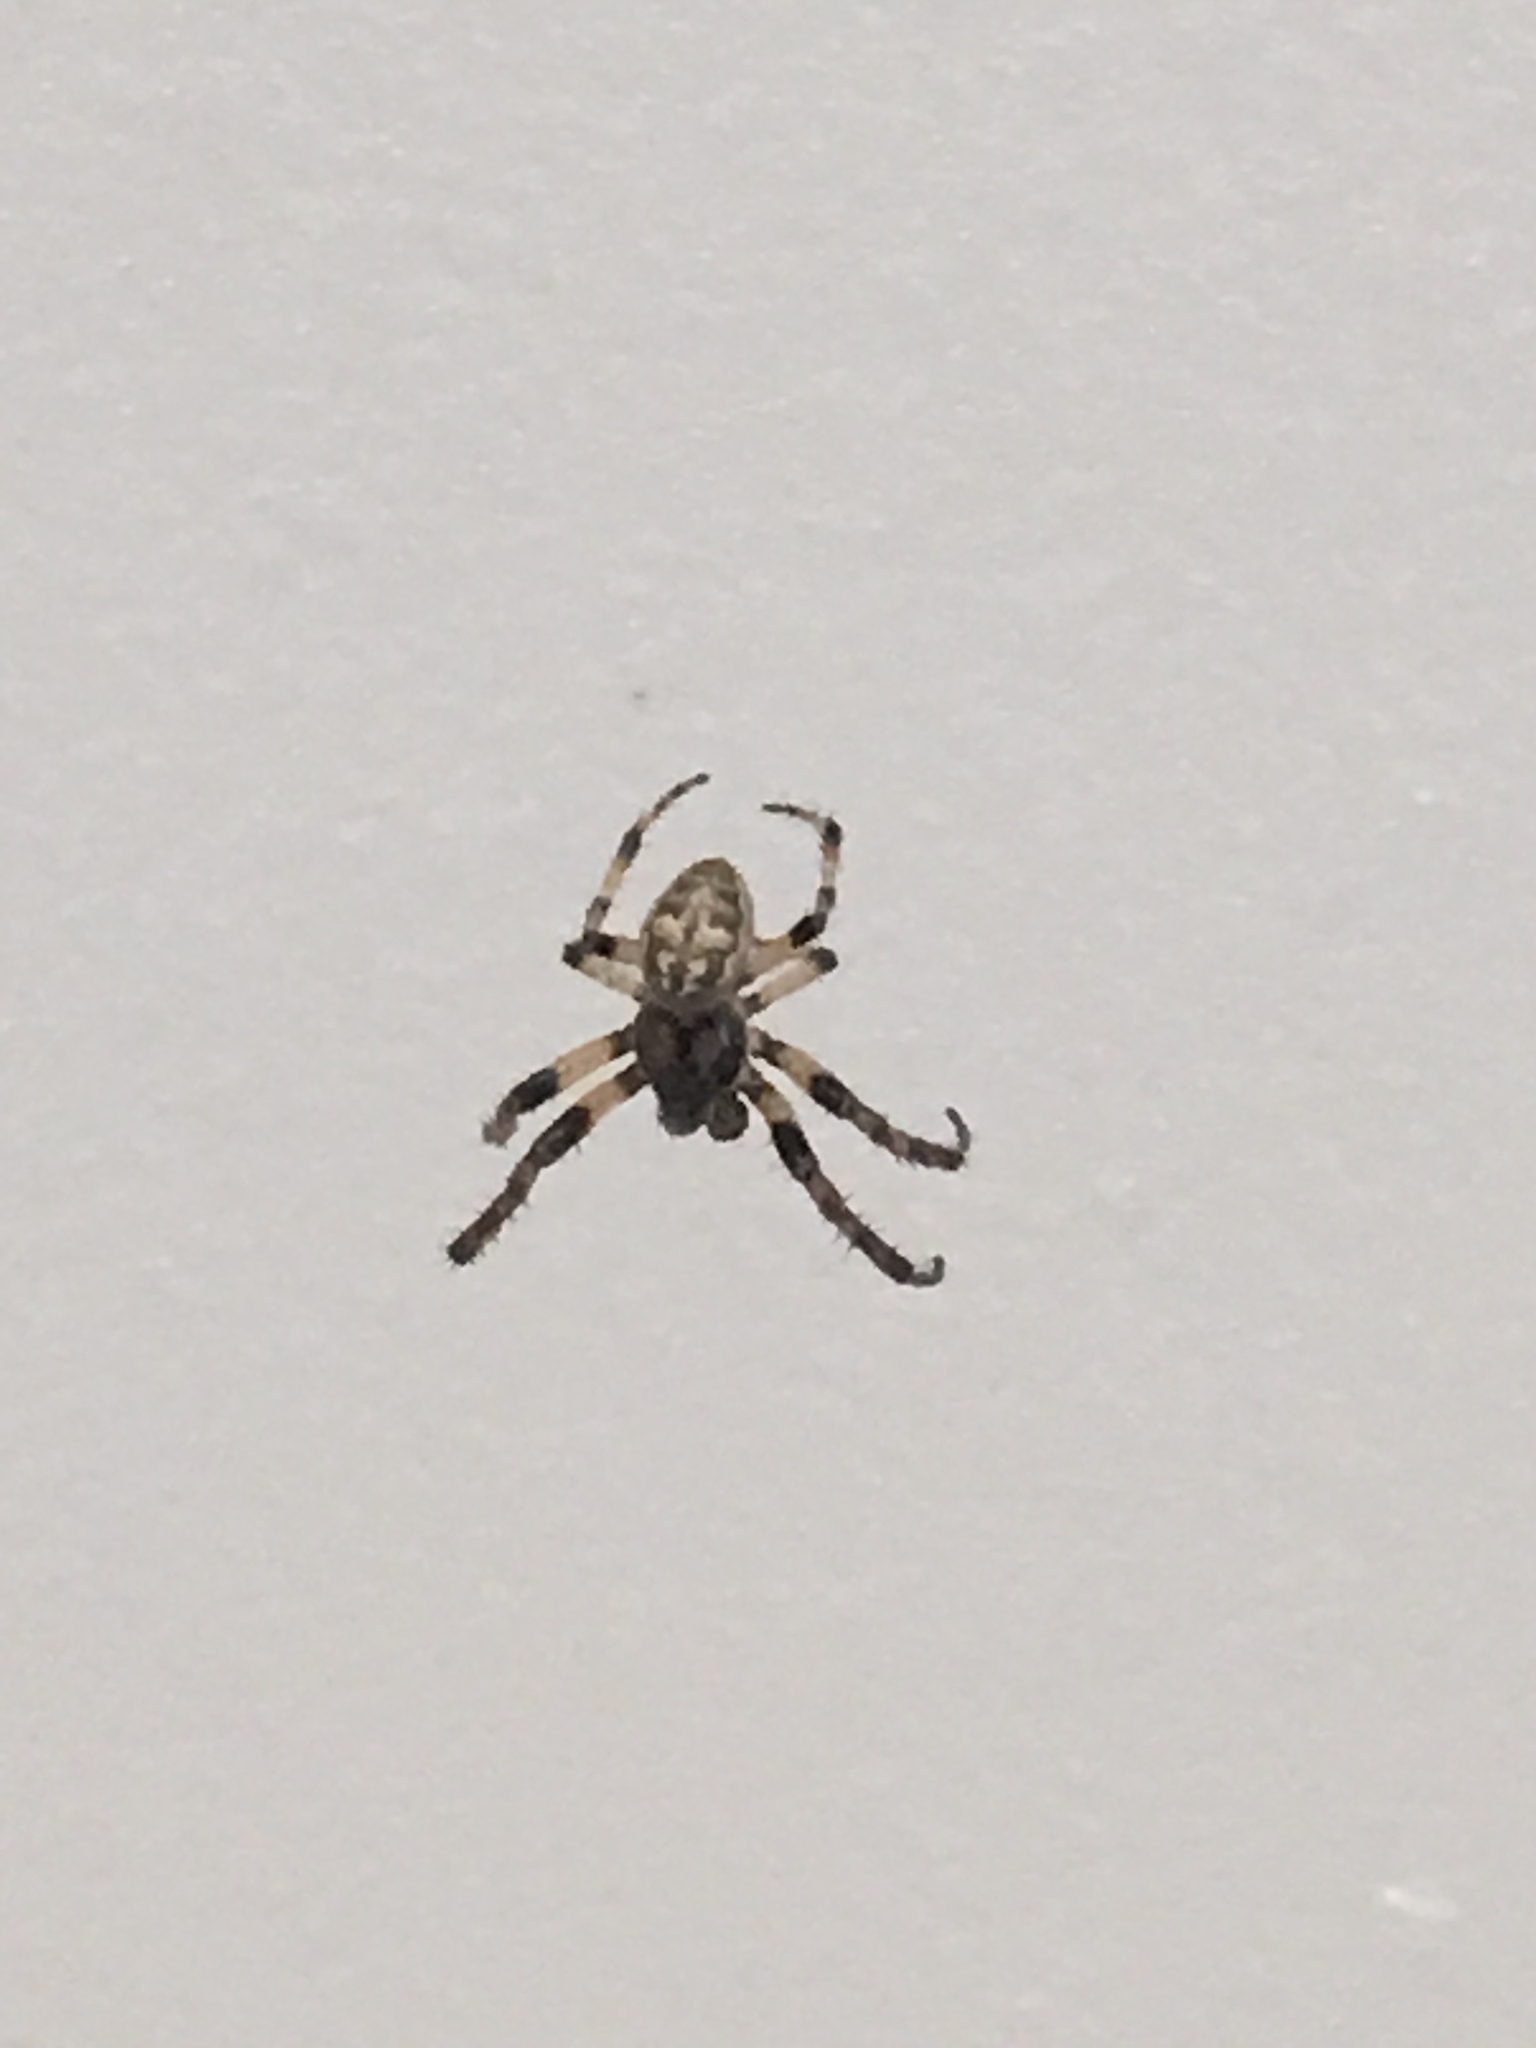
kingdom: Animalia
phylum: Arthropoda
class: Arachnida
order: Araneae
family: Araneidae
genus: Larinioides
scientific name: Larinioides cornutus
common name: Furrow orbweaver
